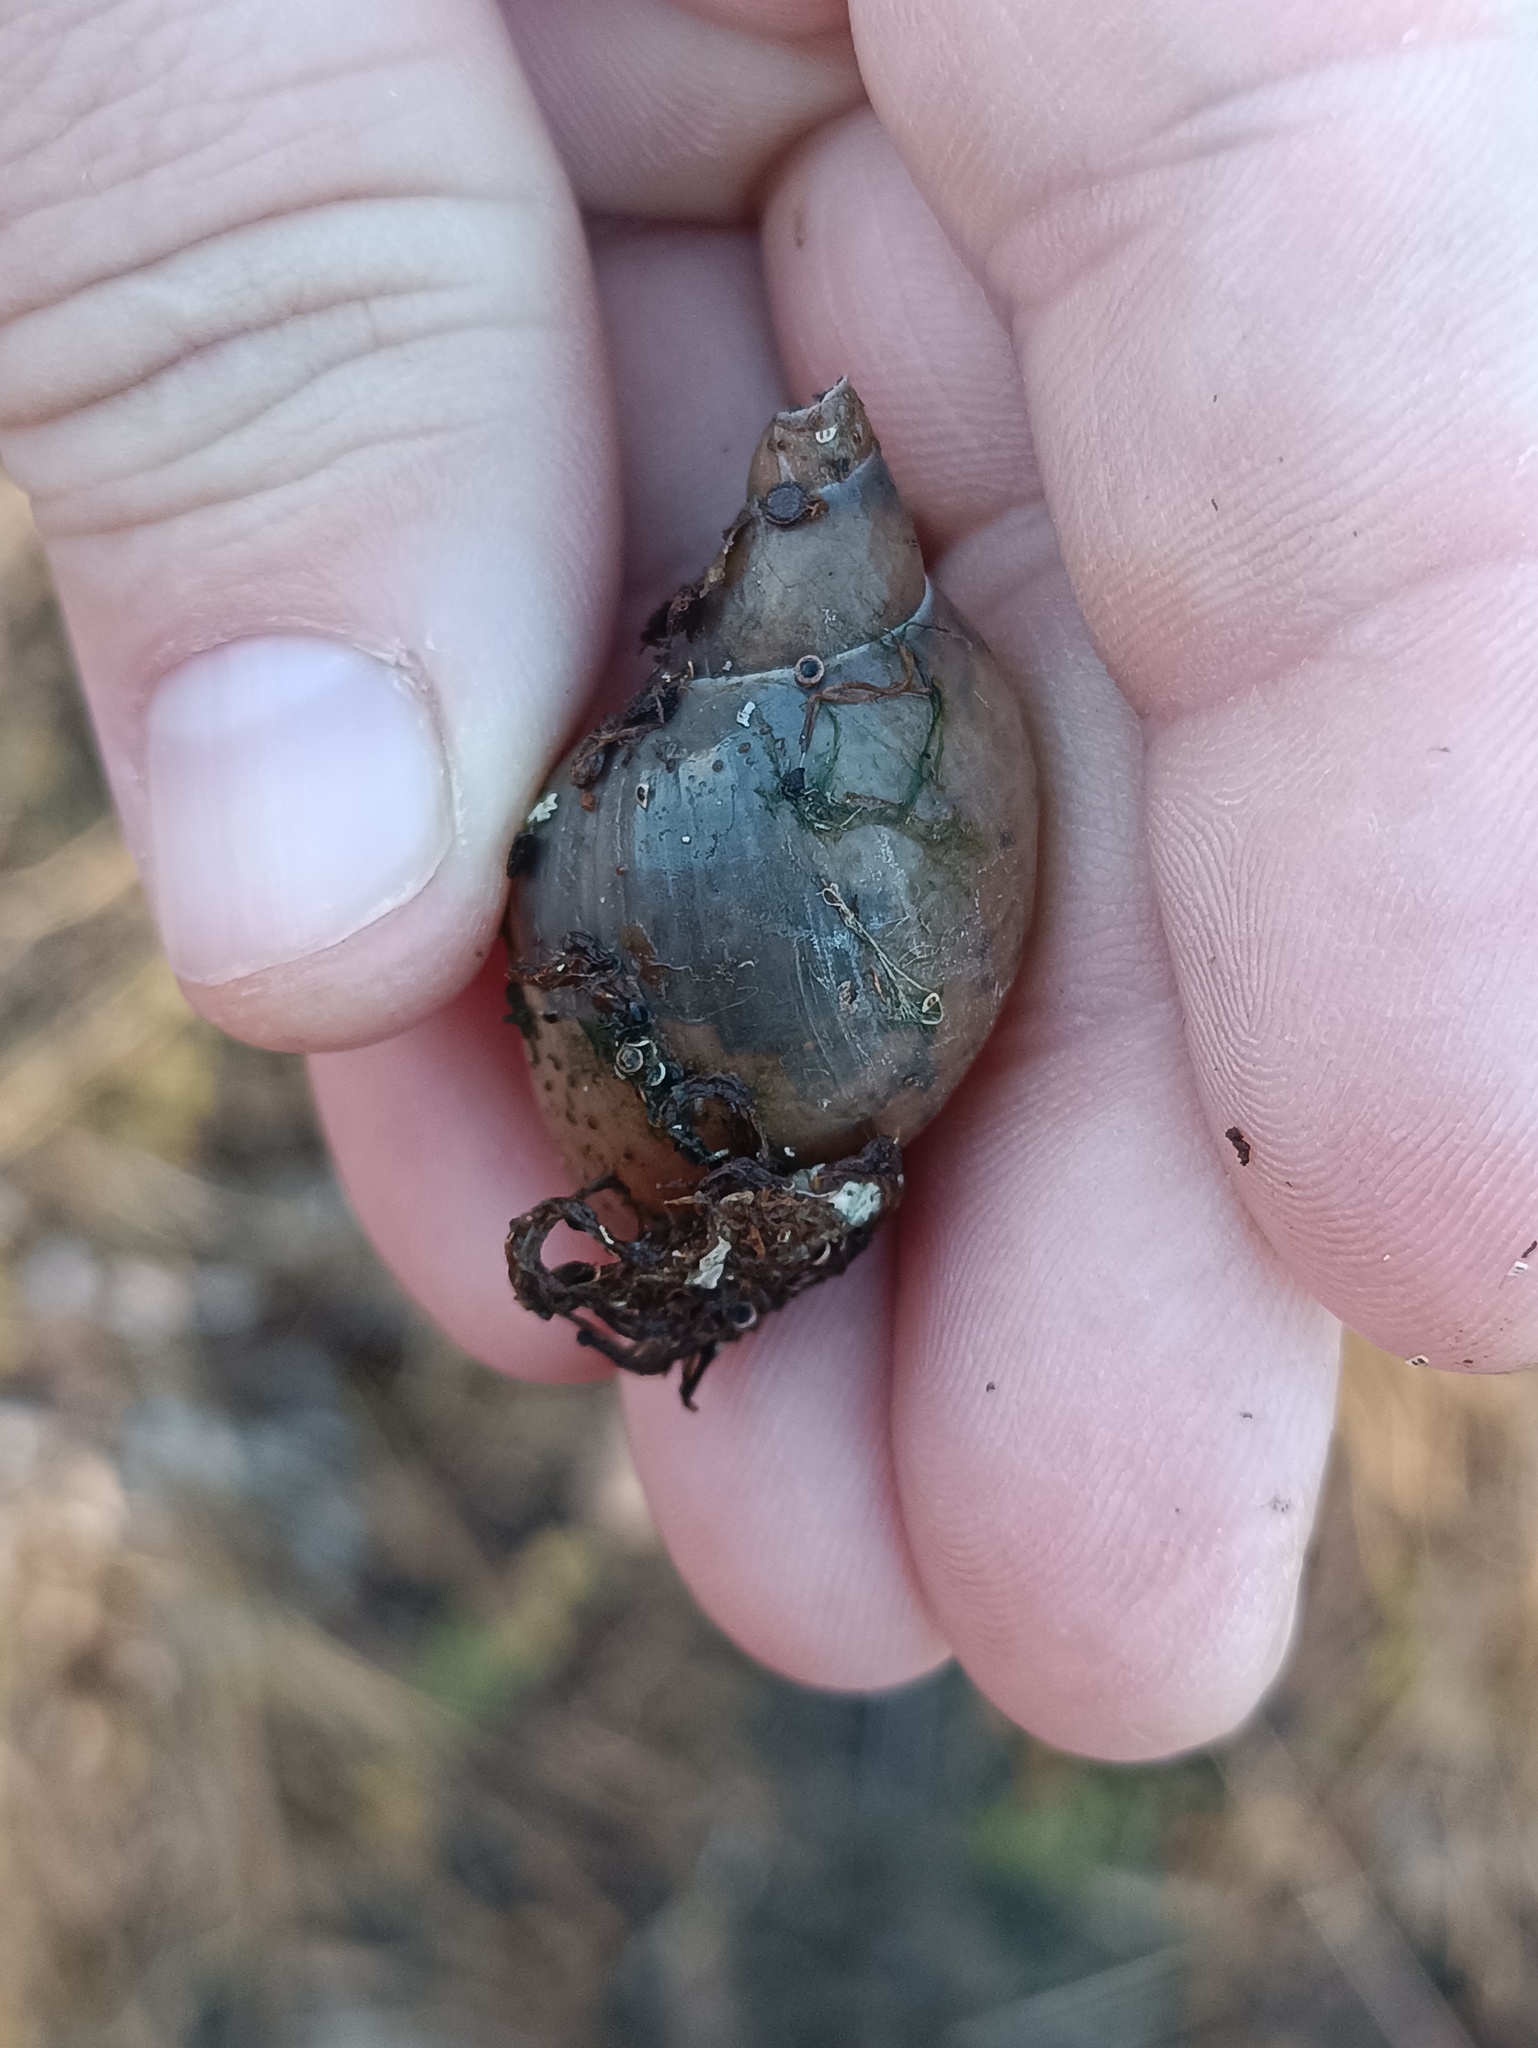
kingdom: Animalia
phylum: Mollusca
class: Gastropoda
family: Lymnaeidae
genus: Lymnaea
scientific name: Lymnaea stagnalis
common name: Great pond snail
